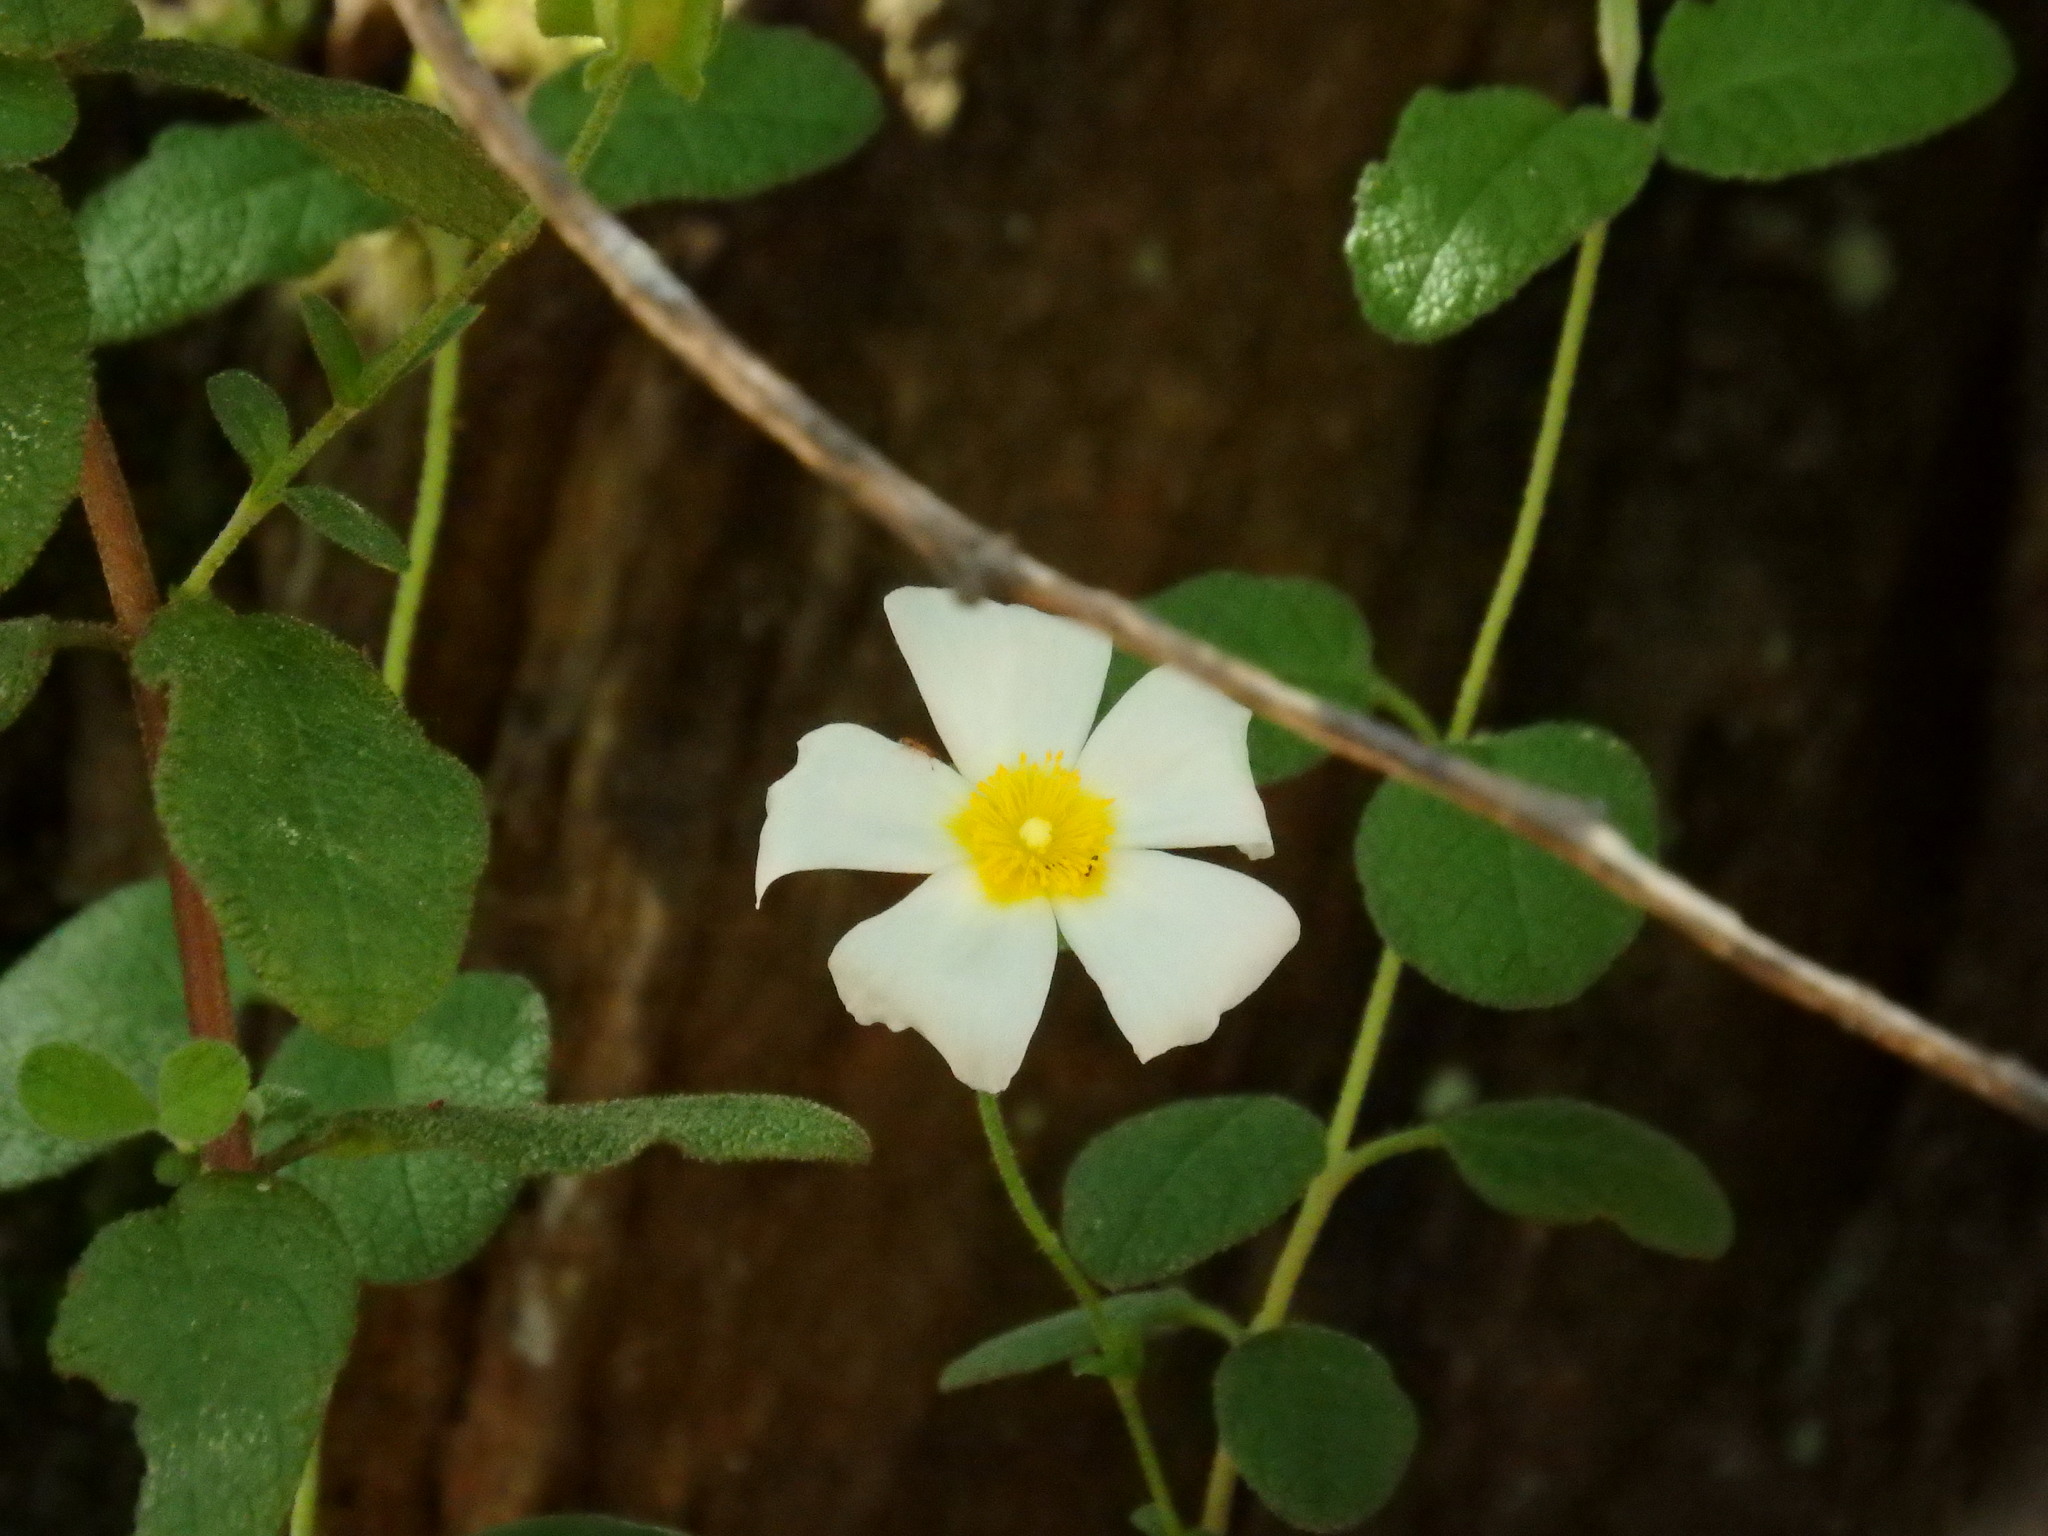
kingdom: Plantae
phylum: Tracheophyta
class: Magnoliopsida
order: Malvales
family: Cistaceae
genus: Cistus
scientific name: Cistus salviifolius
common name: Salvia cistus
